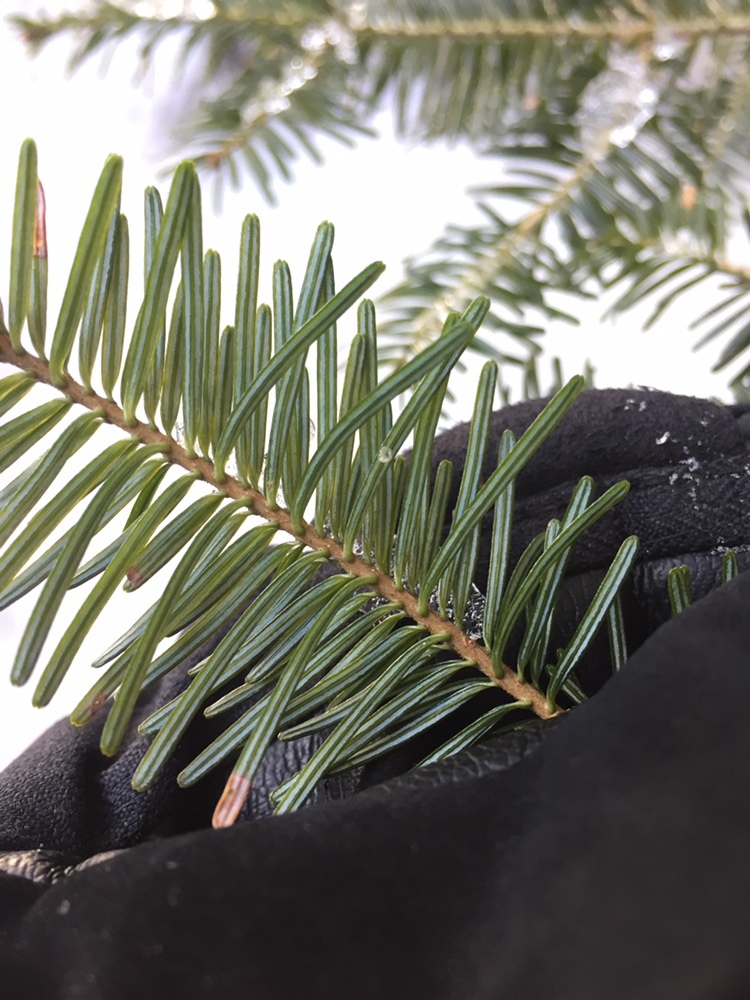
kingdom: Plantae
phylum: Tracheophyta
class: Pinopsida
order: Pinales
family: Pinaceae
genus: Abies
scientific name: Abies balsamea
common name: Balsam fir
